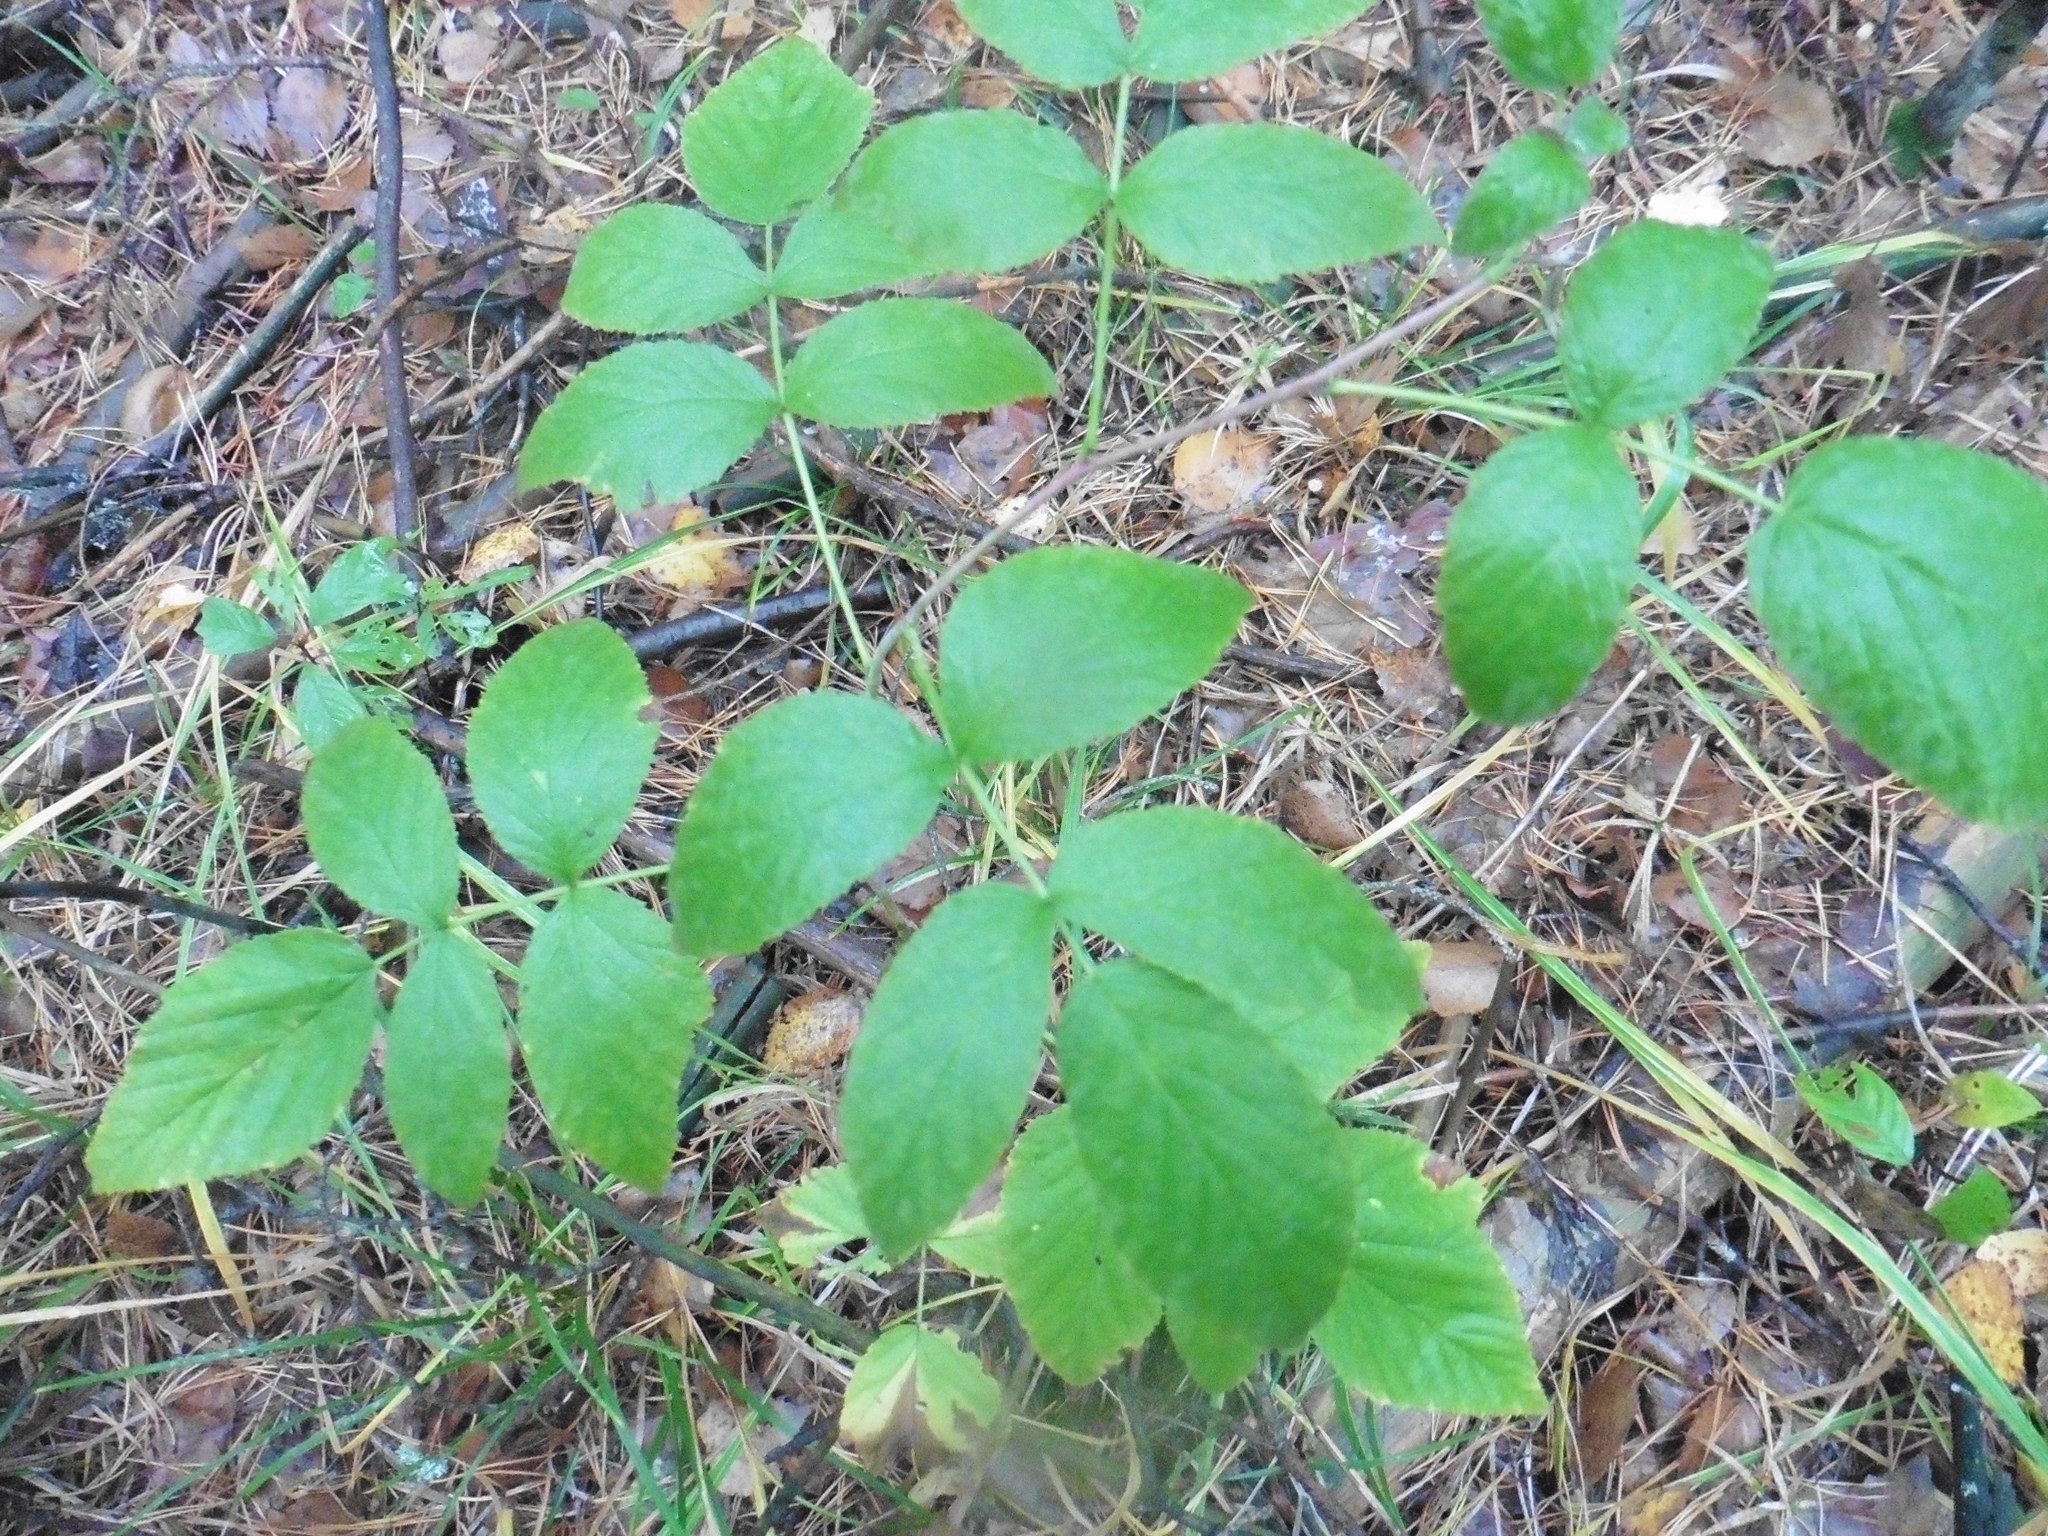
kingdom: Plantae
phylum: Tracheophyta
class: Magnoliopsida
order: Rosales
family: Rosaceae
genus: Rubus
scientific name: Rubus idaeus
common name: Raspberry
